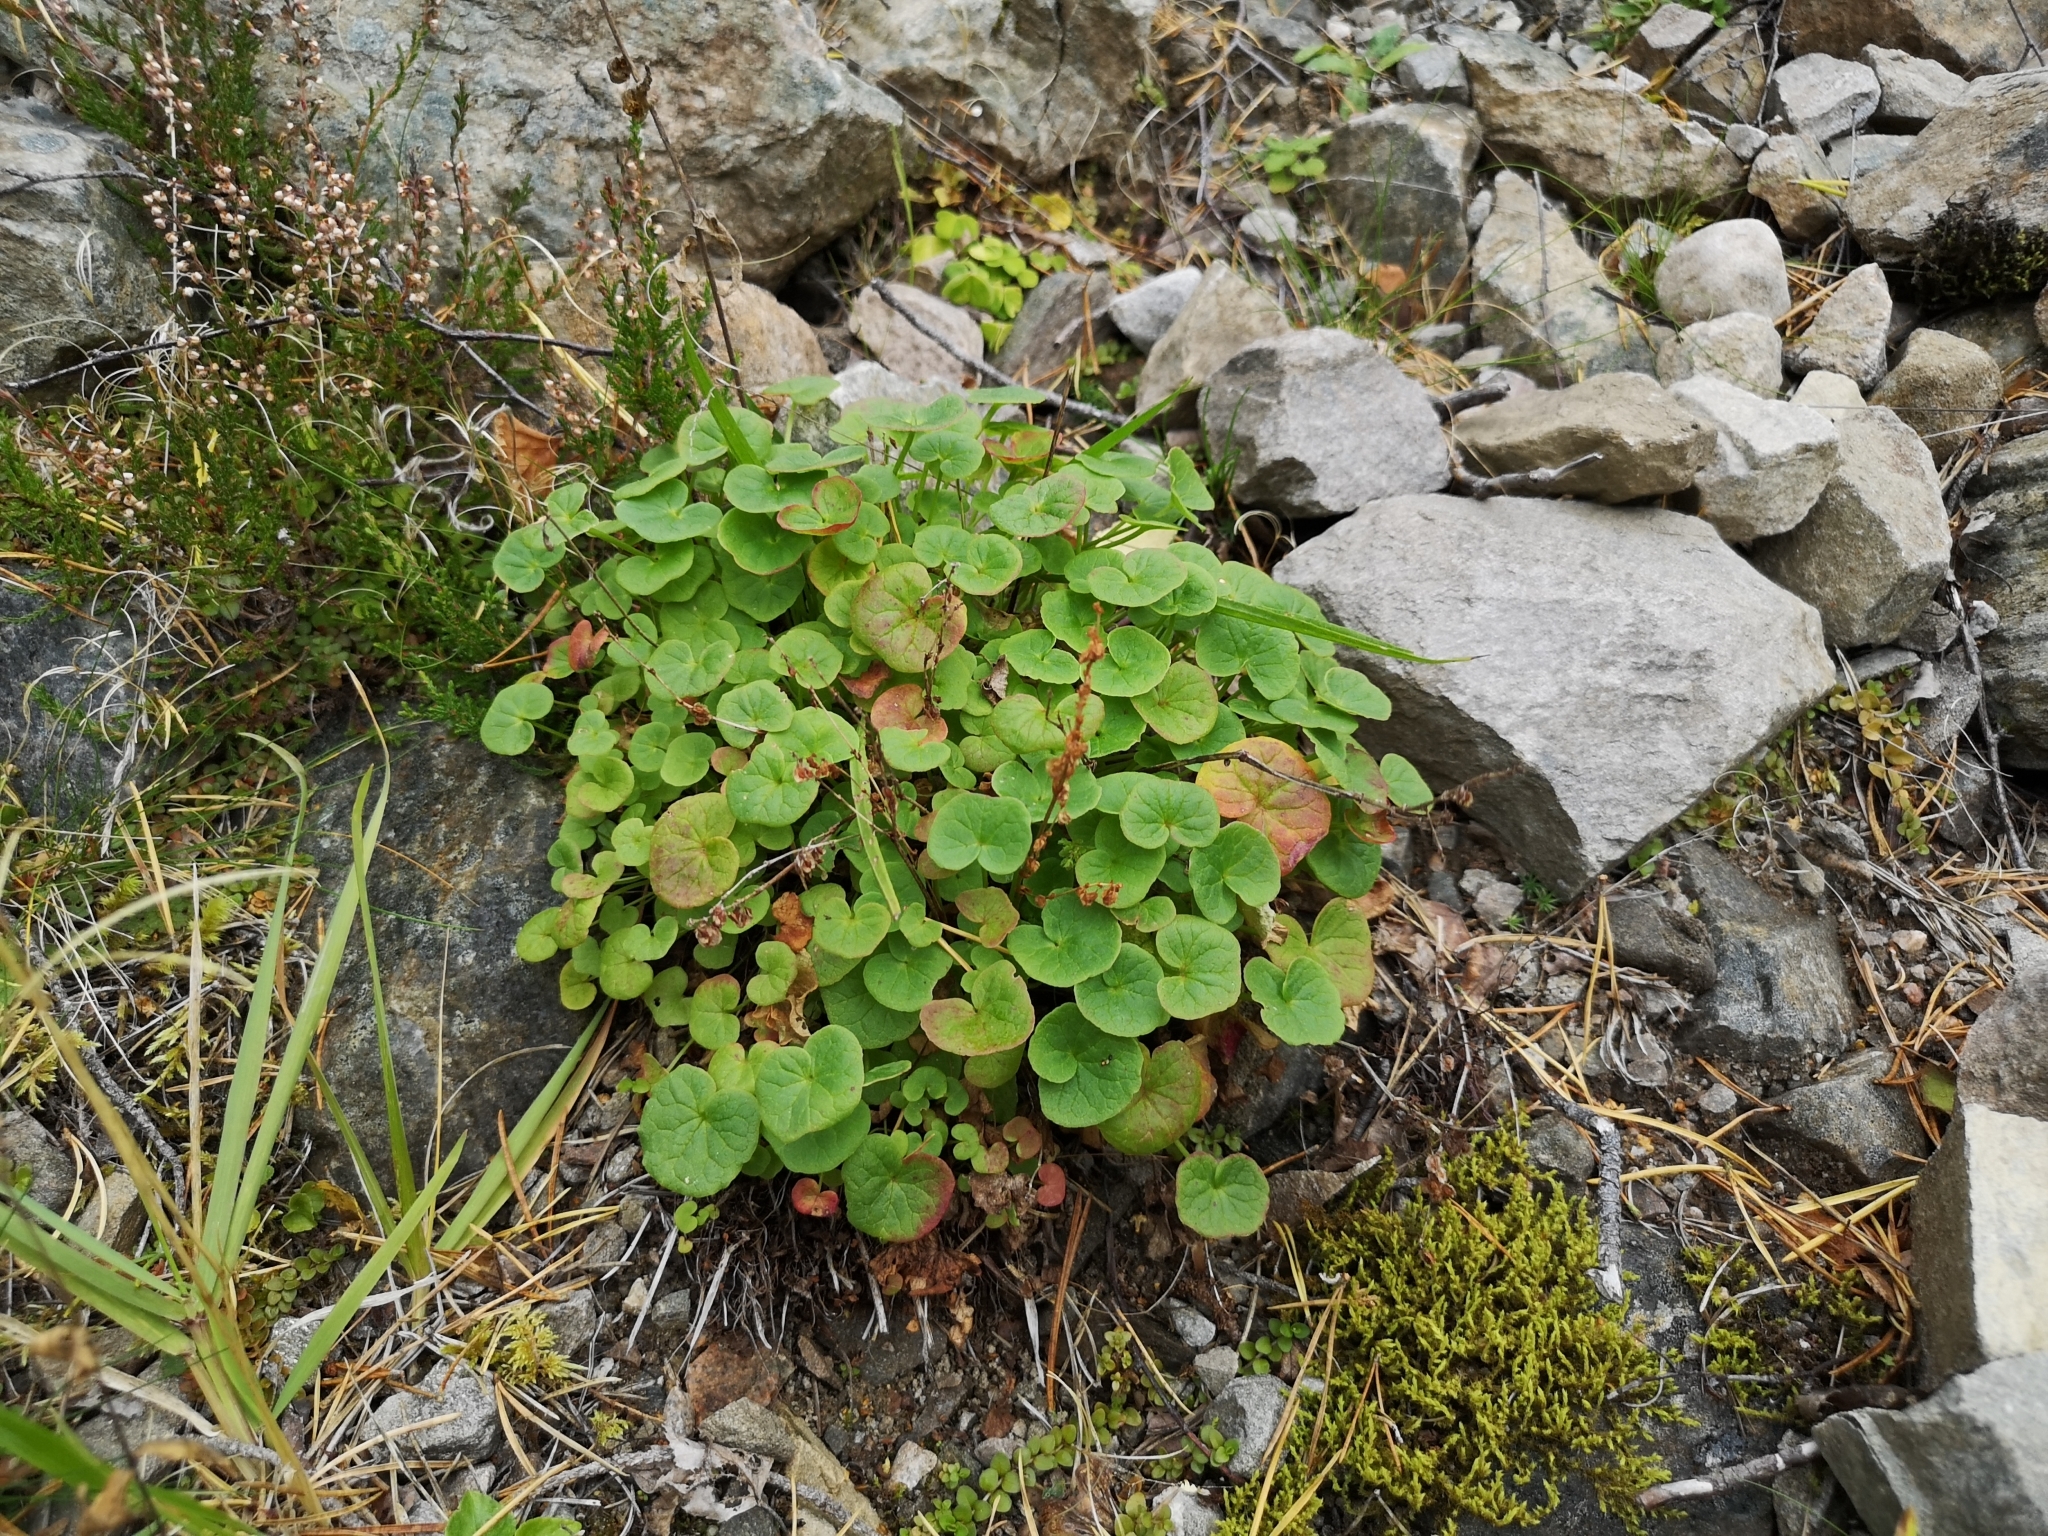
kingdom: Plantae
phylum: Tracheophyta
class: Magnoliopsida
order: Caryophyllales
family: Polygonaceae
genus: Oxyria
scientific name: Oxyria digyna
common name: Alpine mountain-sorrel
